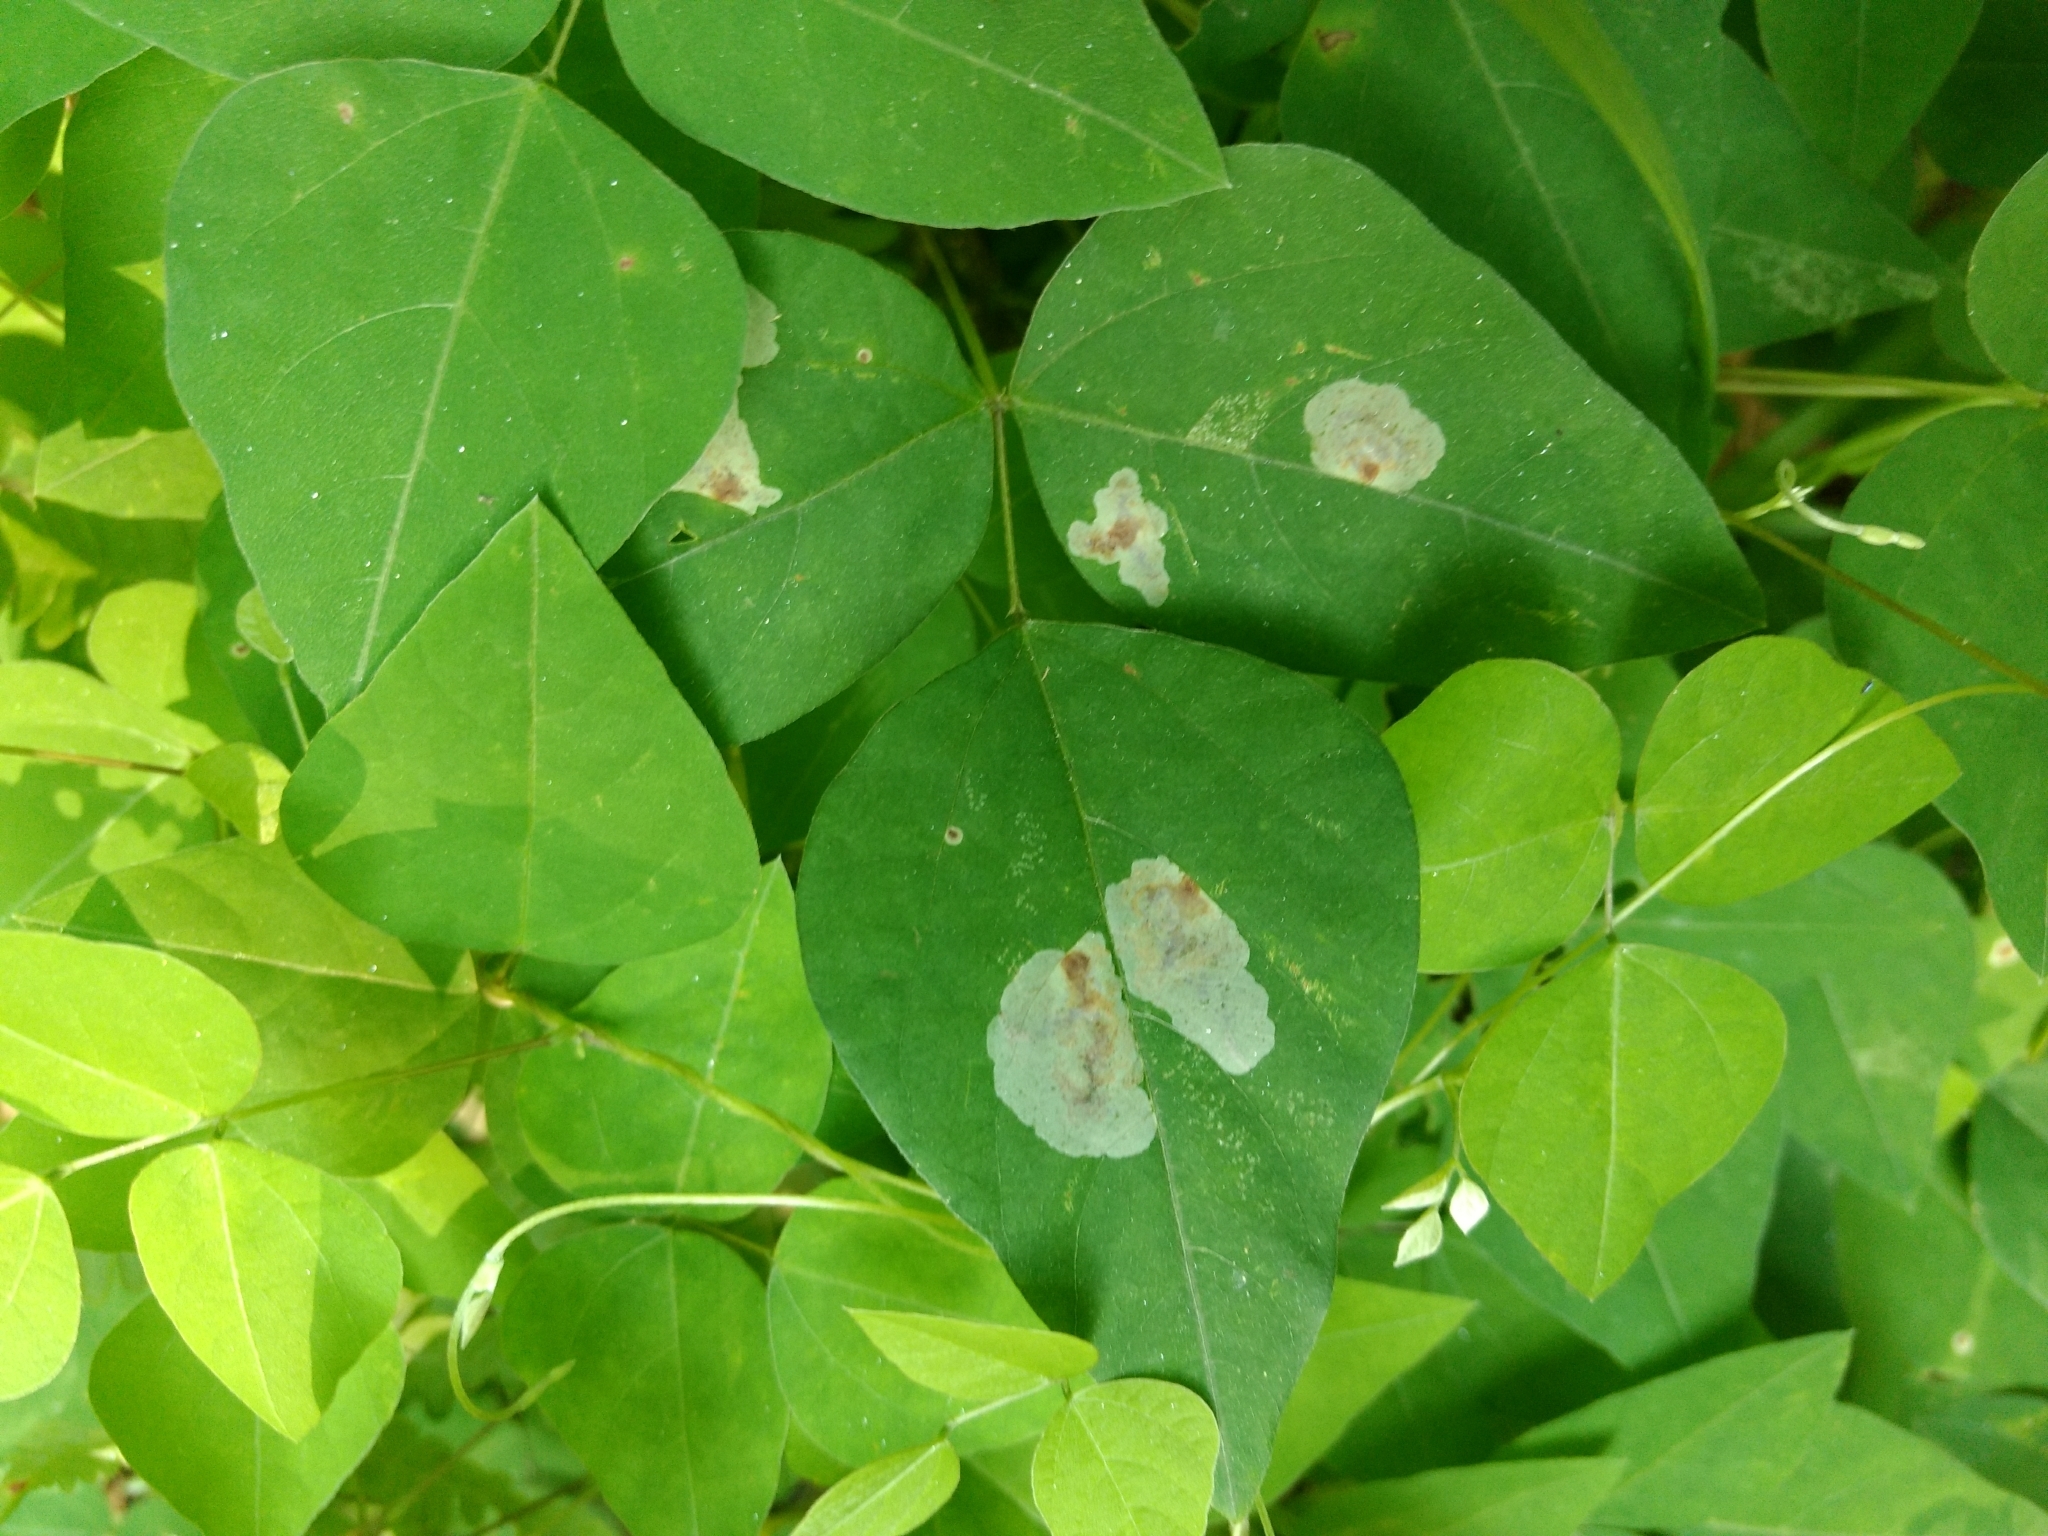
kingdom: Plantae
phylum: Tracheophyta
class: Magnoliopsida
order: Fabales
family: Fabaceae
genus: Amphicarpaea
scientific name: Amphicarpaea bracteata
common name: American hog peanut
